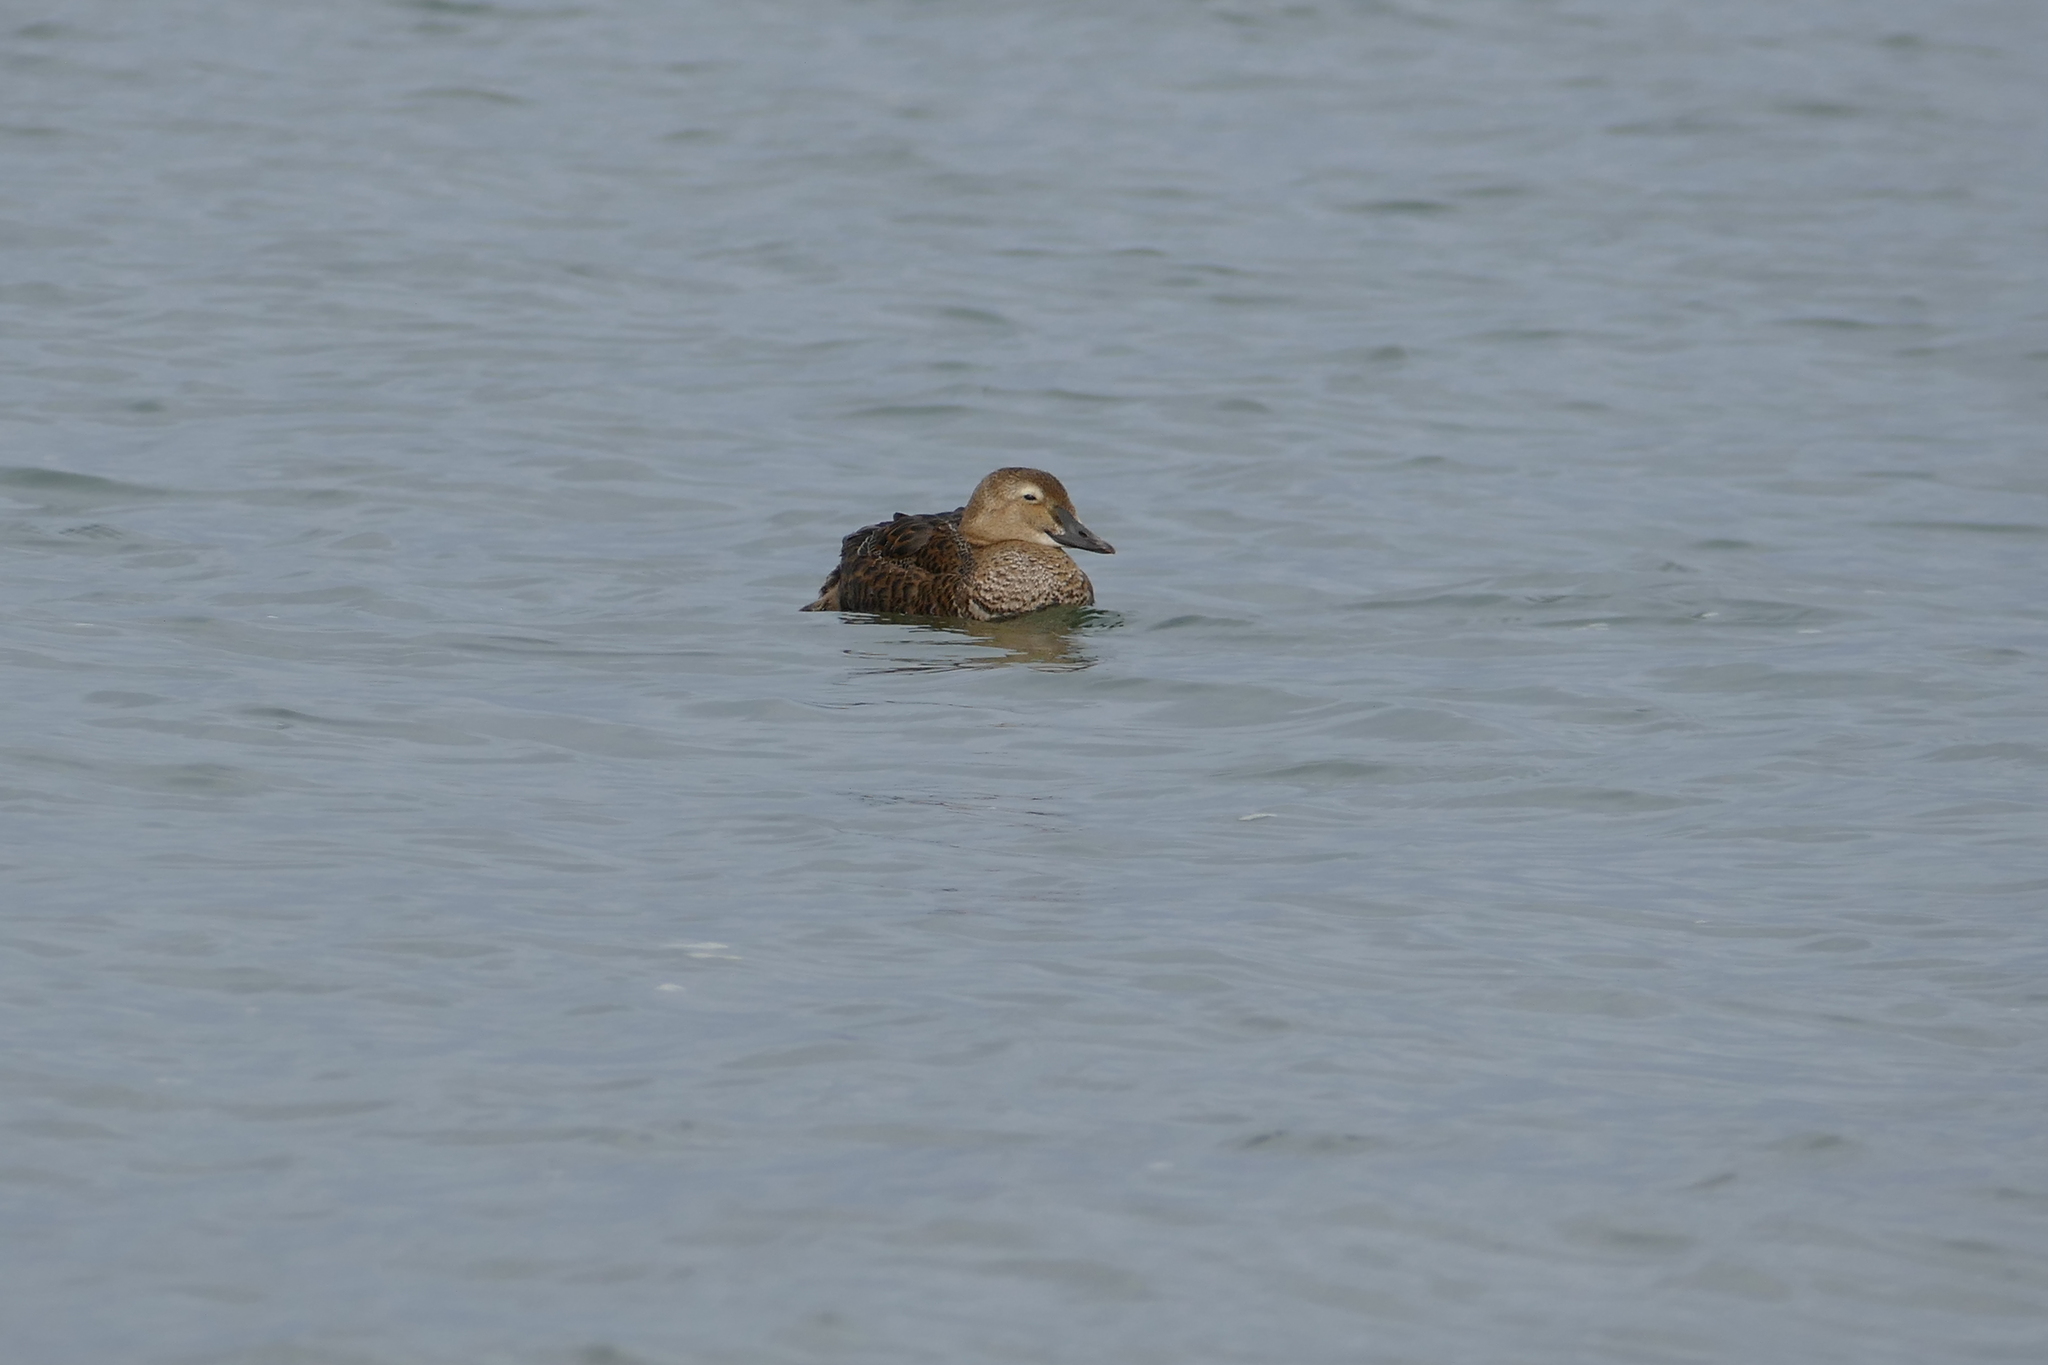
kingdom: Animalia
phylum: Chordata
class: Aves
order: Anseriformes
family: Anatidae
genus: Somateria
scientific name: Somateria spectabilis
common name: King eider
